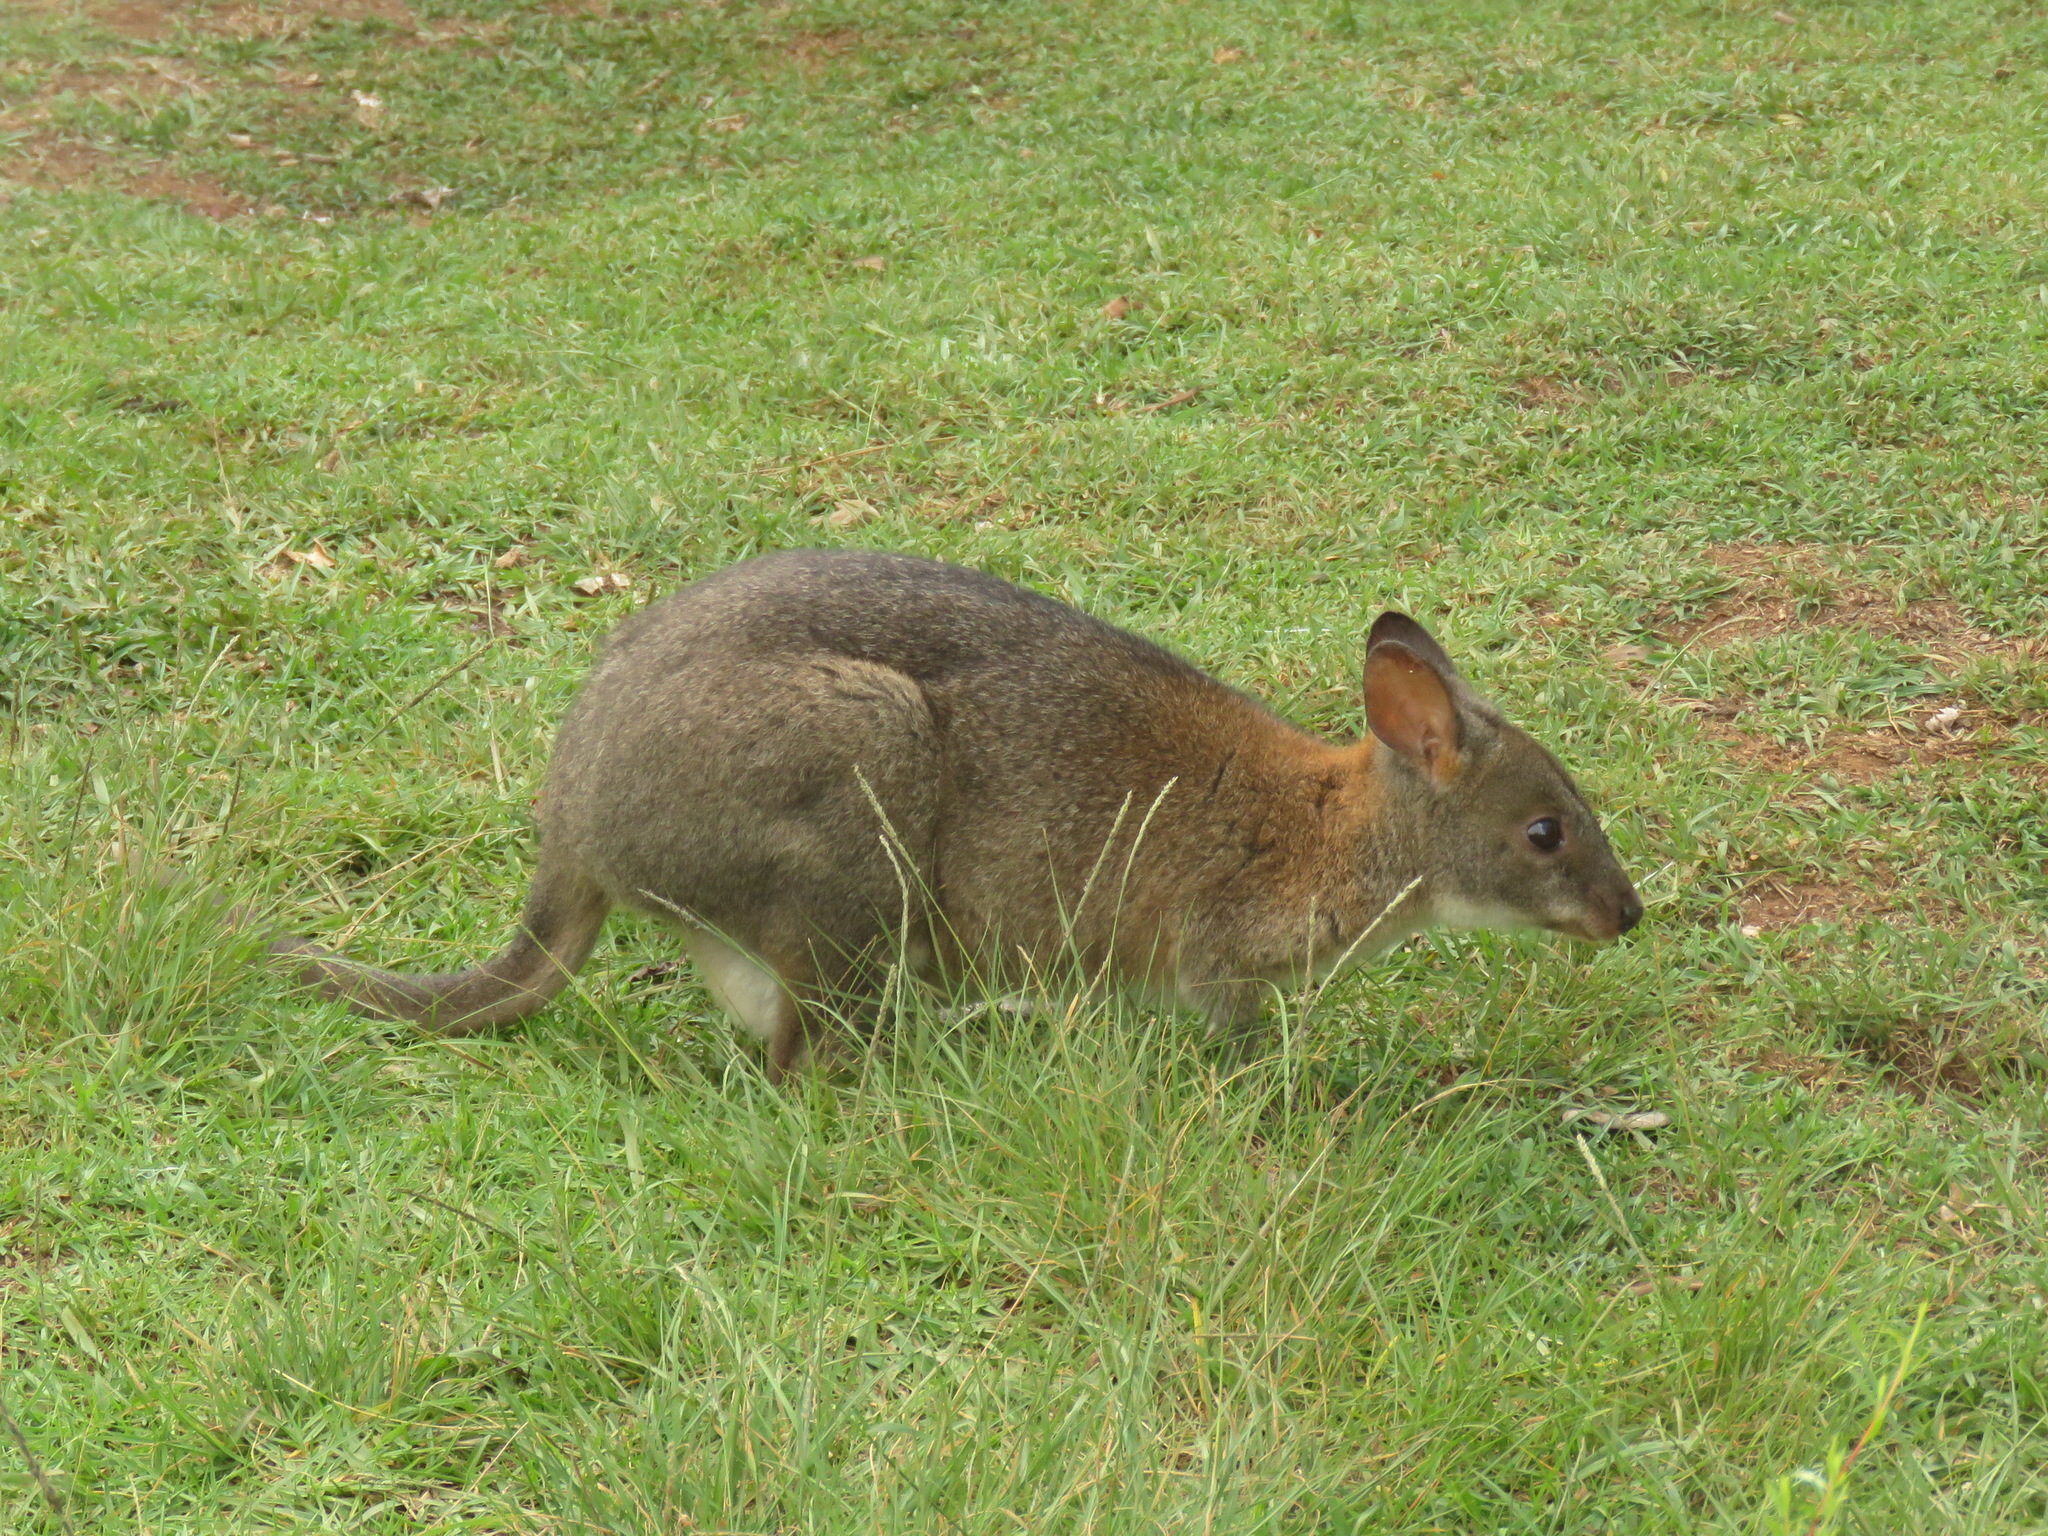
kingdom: Animalia
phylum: Chordata
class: Mammalia
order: Diprotodontia
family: Macropodidae
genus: Thylogale
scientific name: Thylogale thetis
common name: Red-necked pademelon
